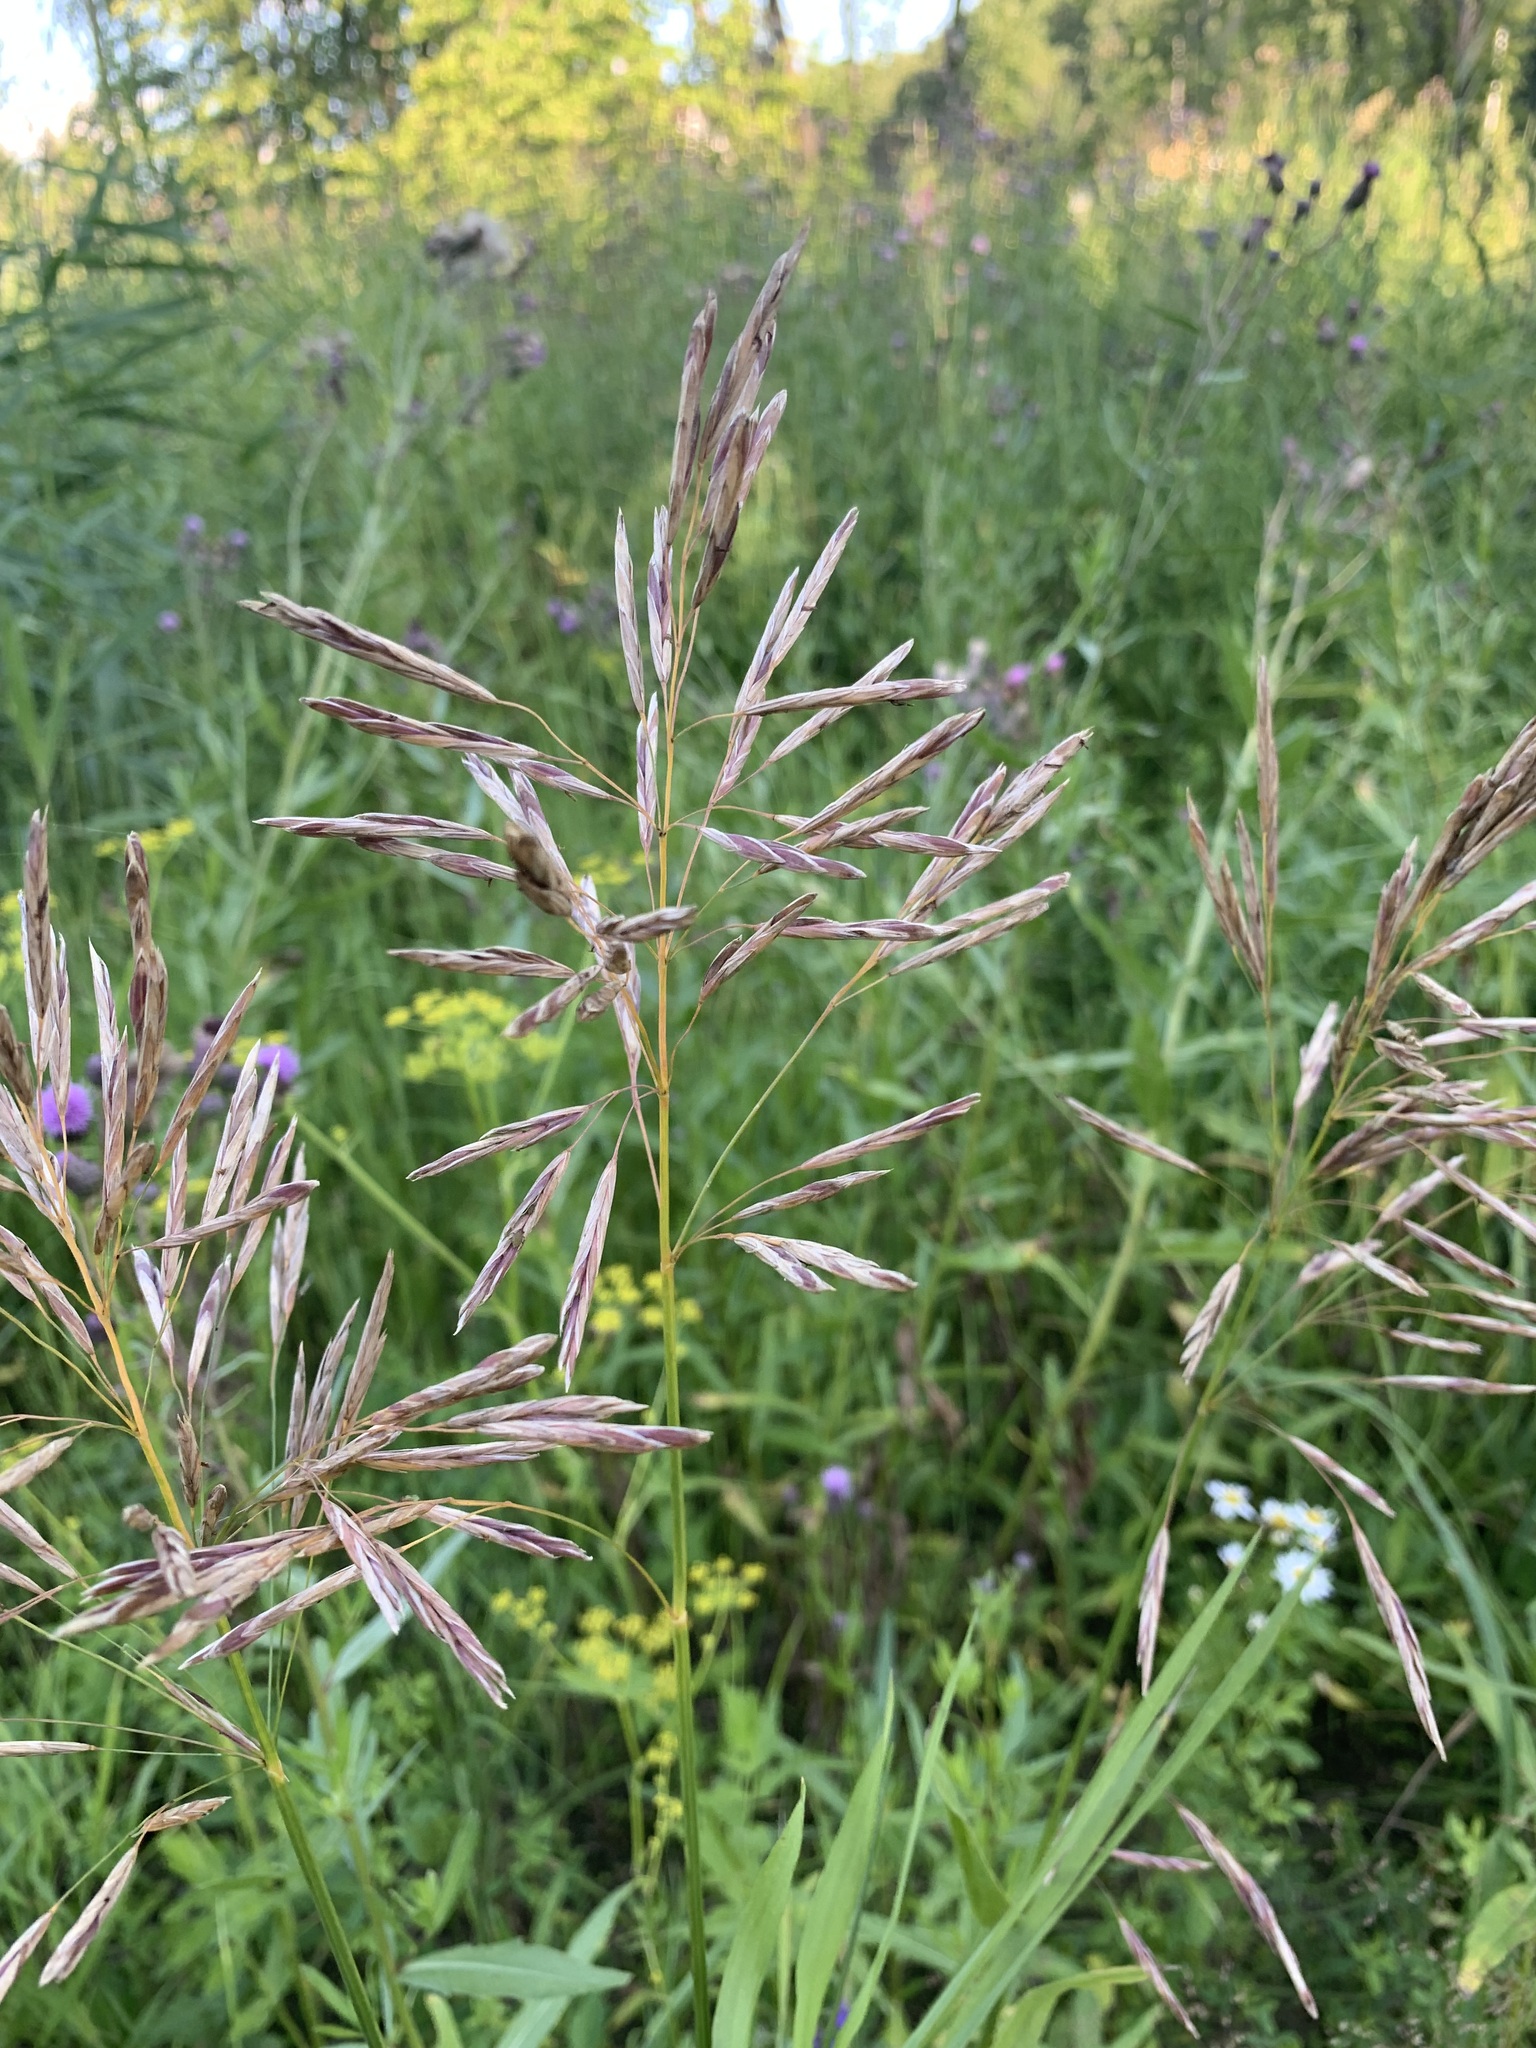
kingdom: Plantae
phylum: Tracheophyta
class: Liliopsida
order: Poales
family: Poaceae
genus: Bromus
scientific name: Bromus inermis
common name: Smooth brome
